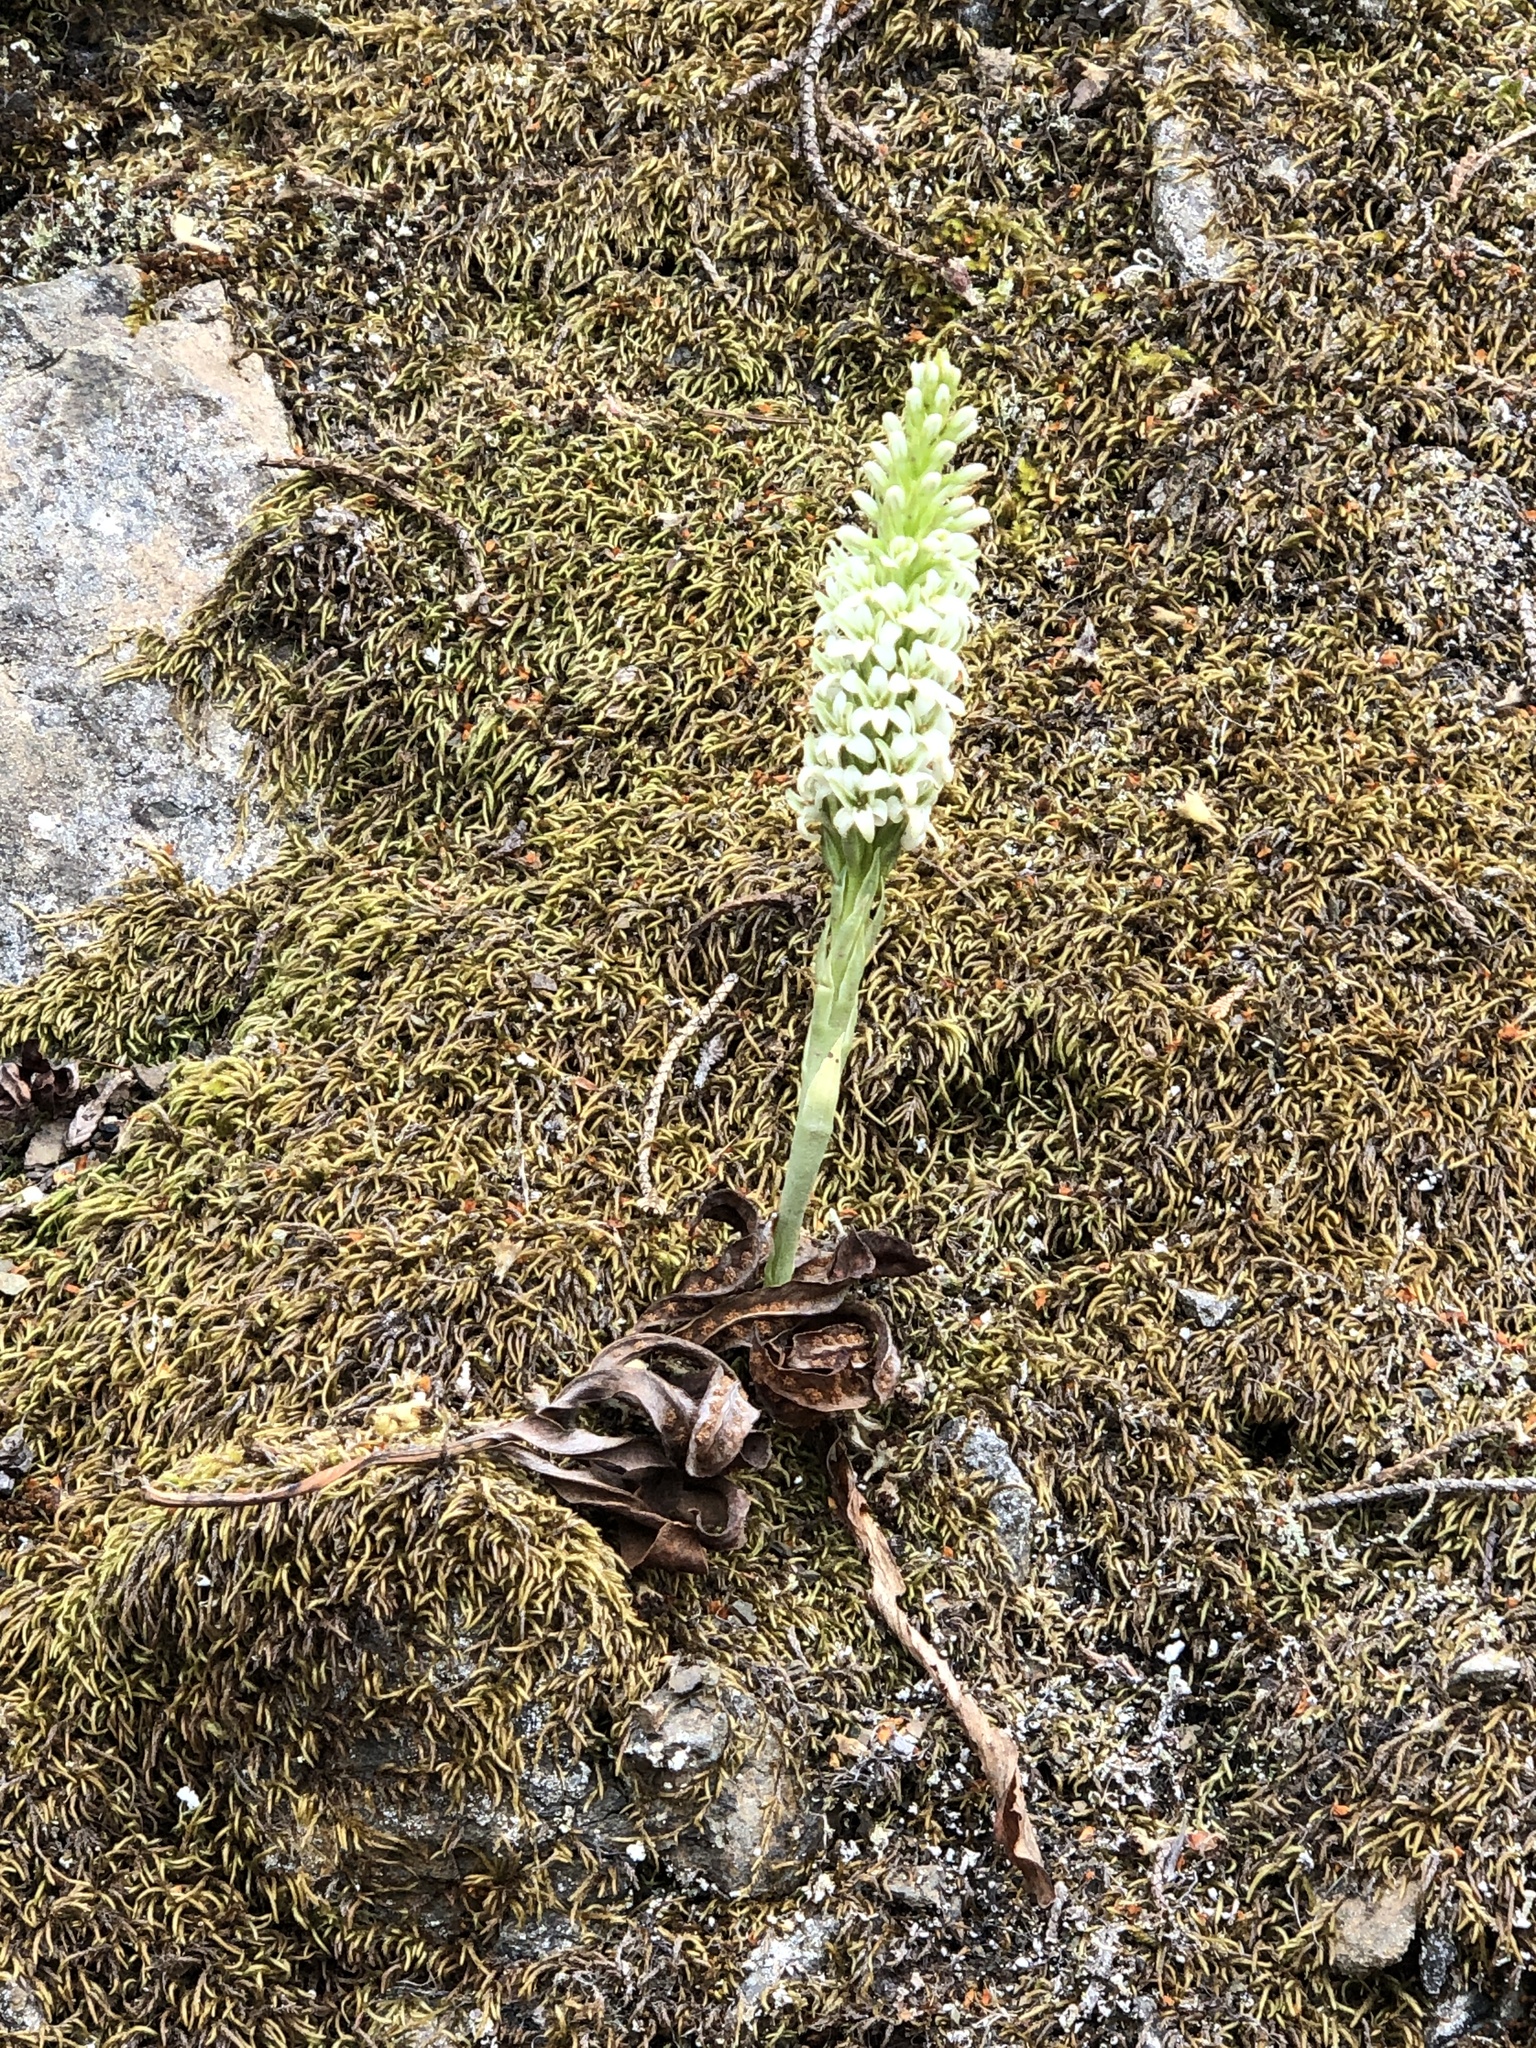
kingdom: Plantae
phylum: Tracheophyta
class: Liliopsida
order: Asparagales
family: Orchidaceae
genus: Platanthera
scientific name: Platanthera elegans
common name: Coast piperia
